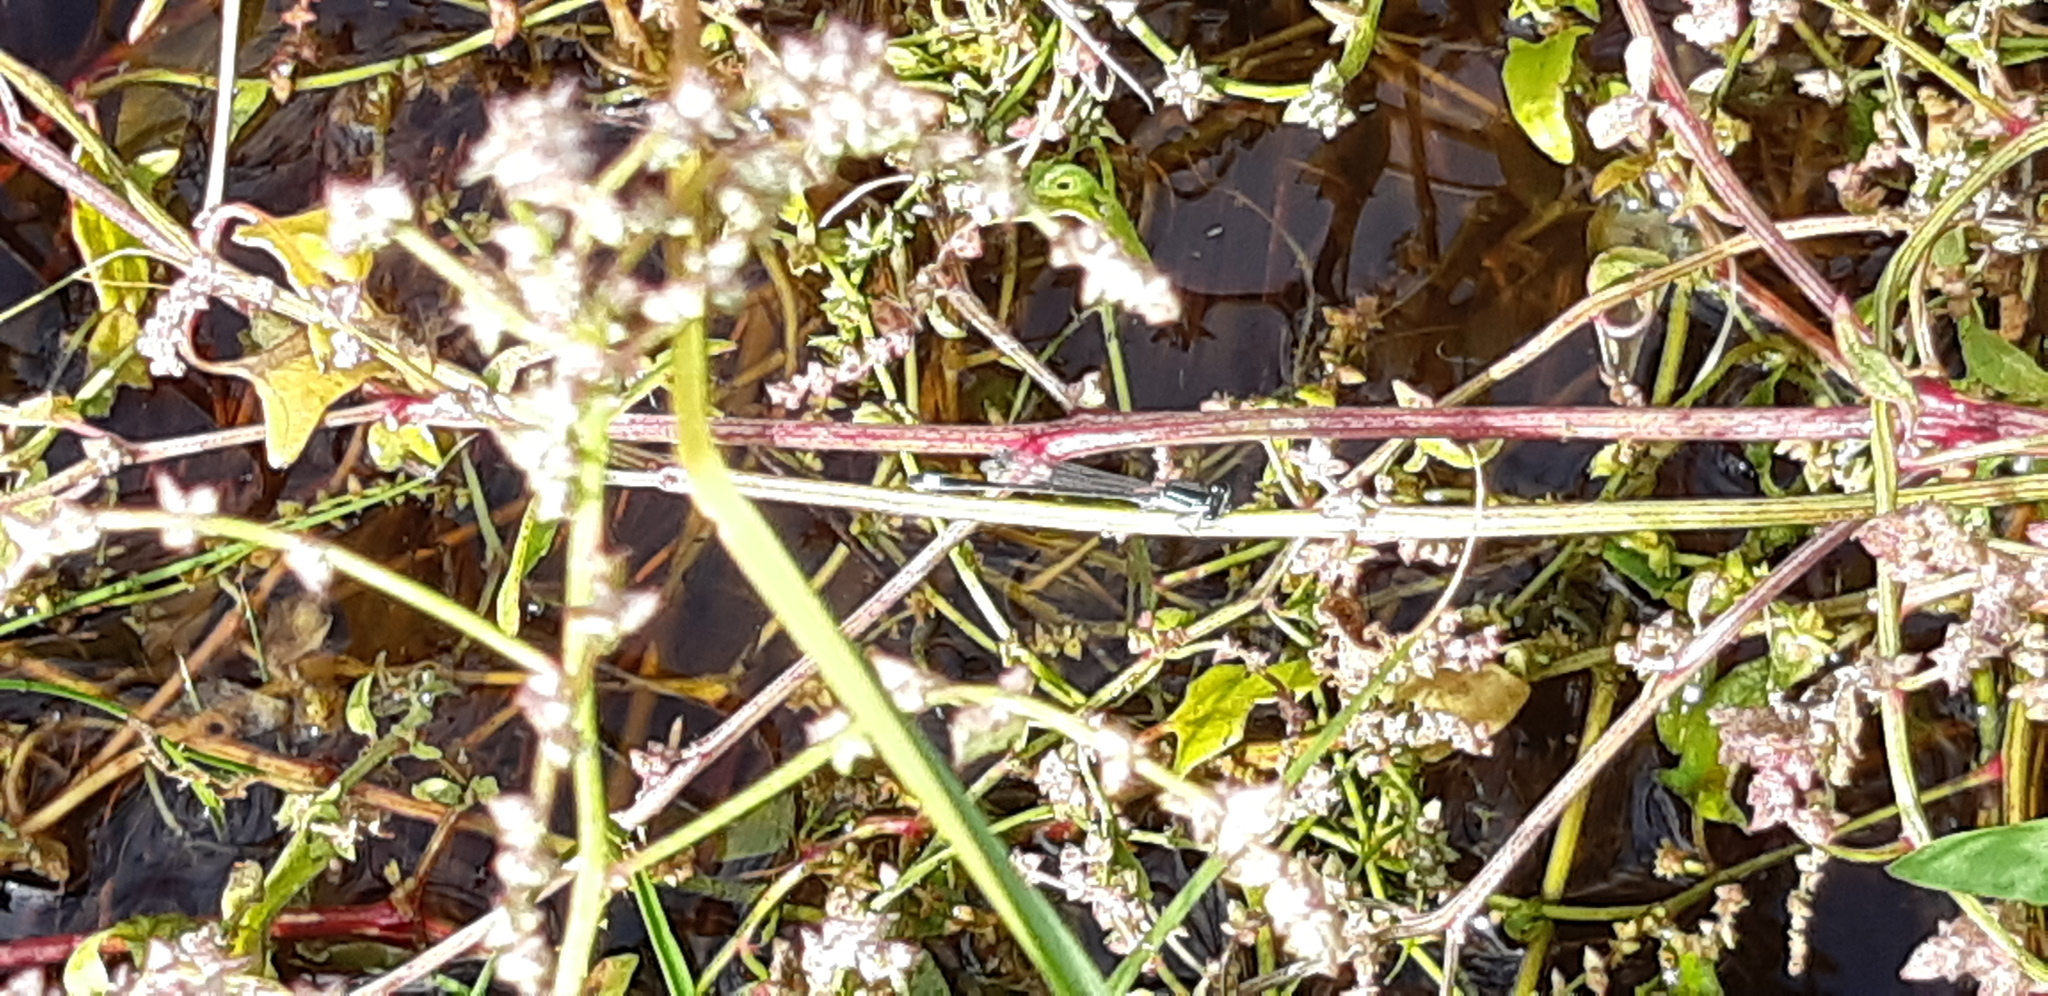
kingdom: Animalia
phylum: Arthropoda
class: Insecta
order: Odonata
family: Coenagrionidae
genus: Ischnura
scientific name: Ischnura elegans
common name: Blue-tailed damselfly
